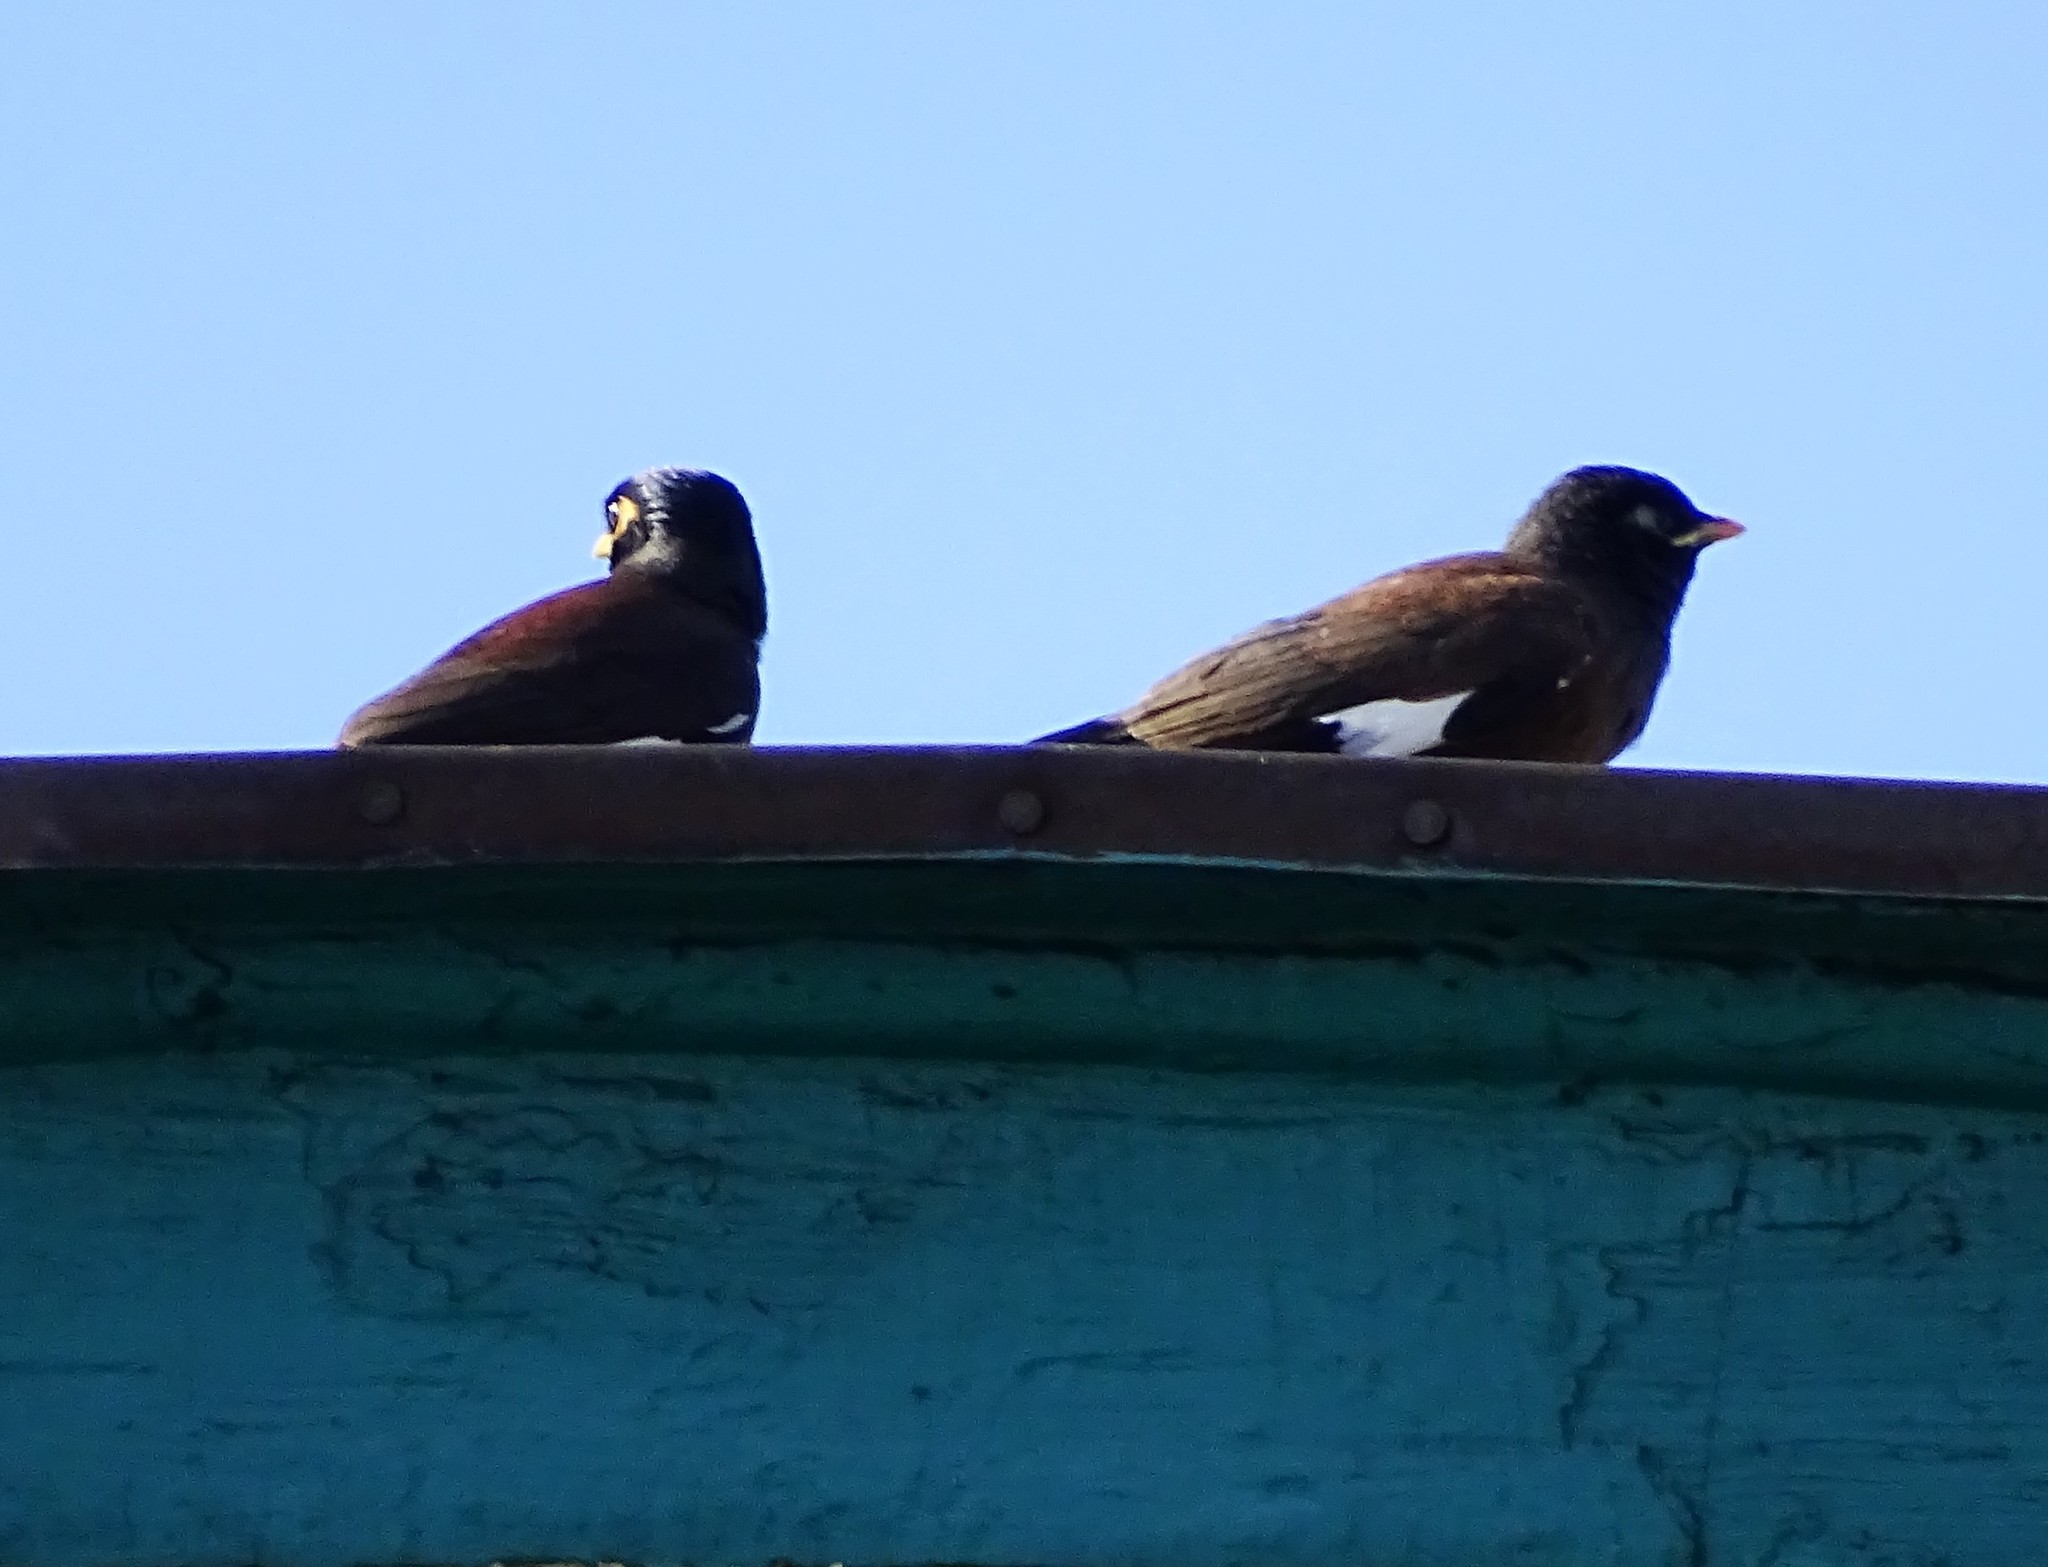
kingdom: Animalia
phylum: Chordata
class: Aves
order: Passeriformes
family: Sturnidae
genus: Acridotheres
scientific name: Acridotheres tristis
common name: Common myna
